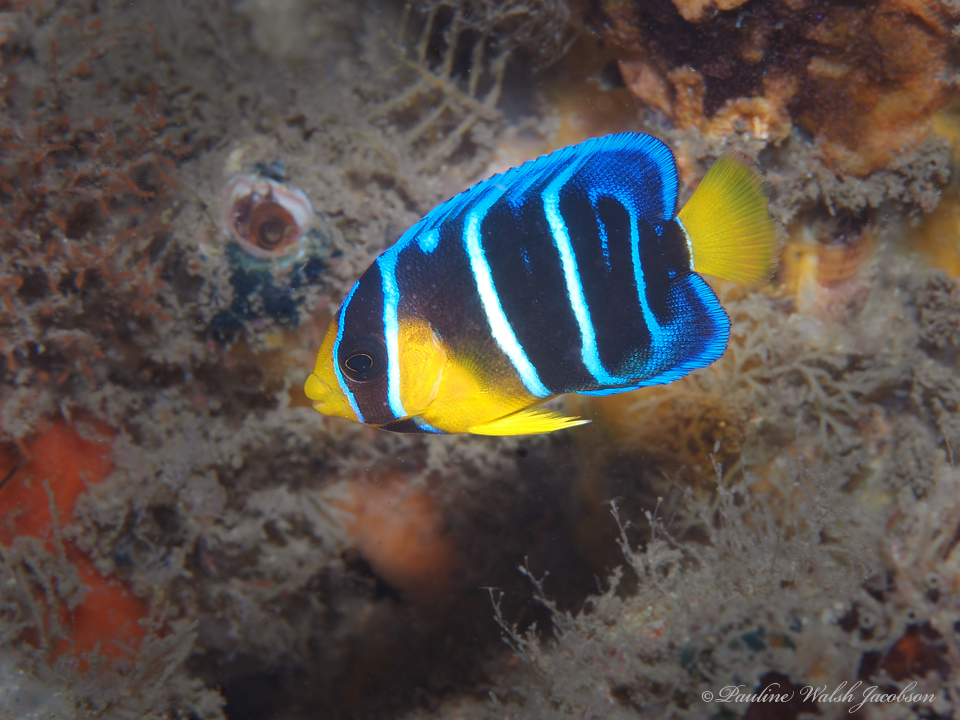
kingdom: Animalia
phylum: Chordata
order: Perciformes
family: Pomacanthidae
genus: Holacanthus
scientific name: Holacanthus bermudensis
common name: Blue angelfish
